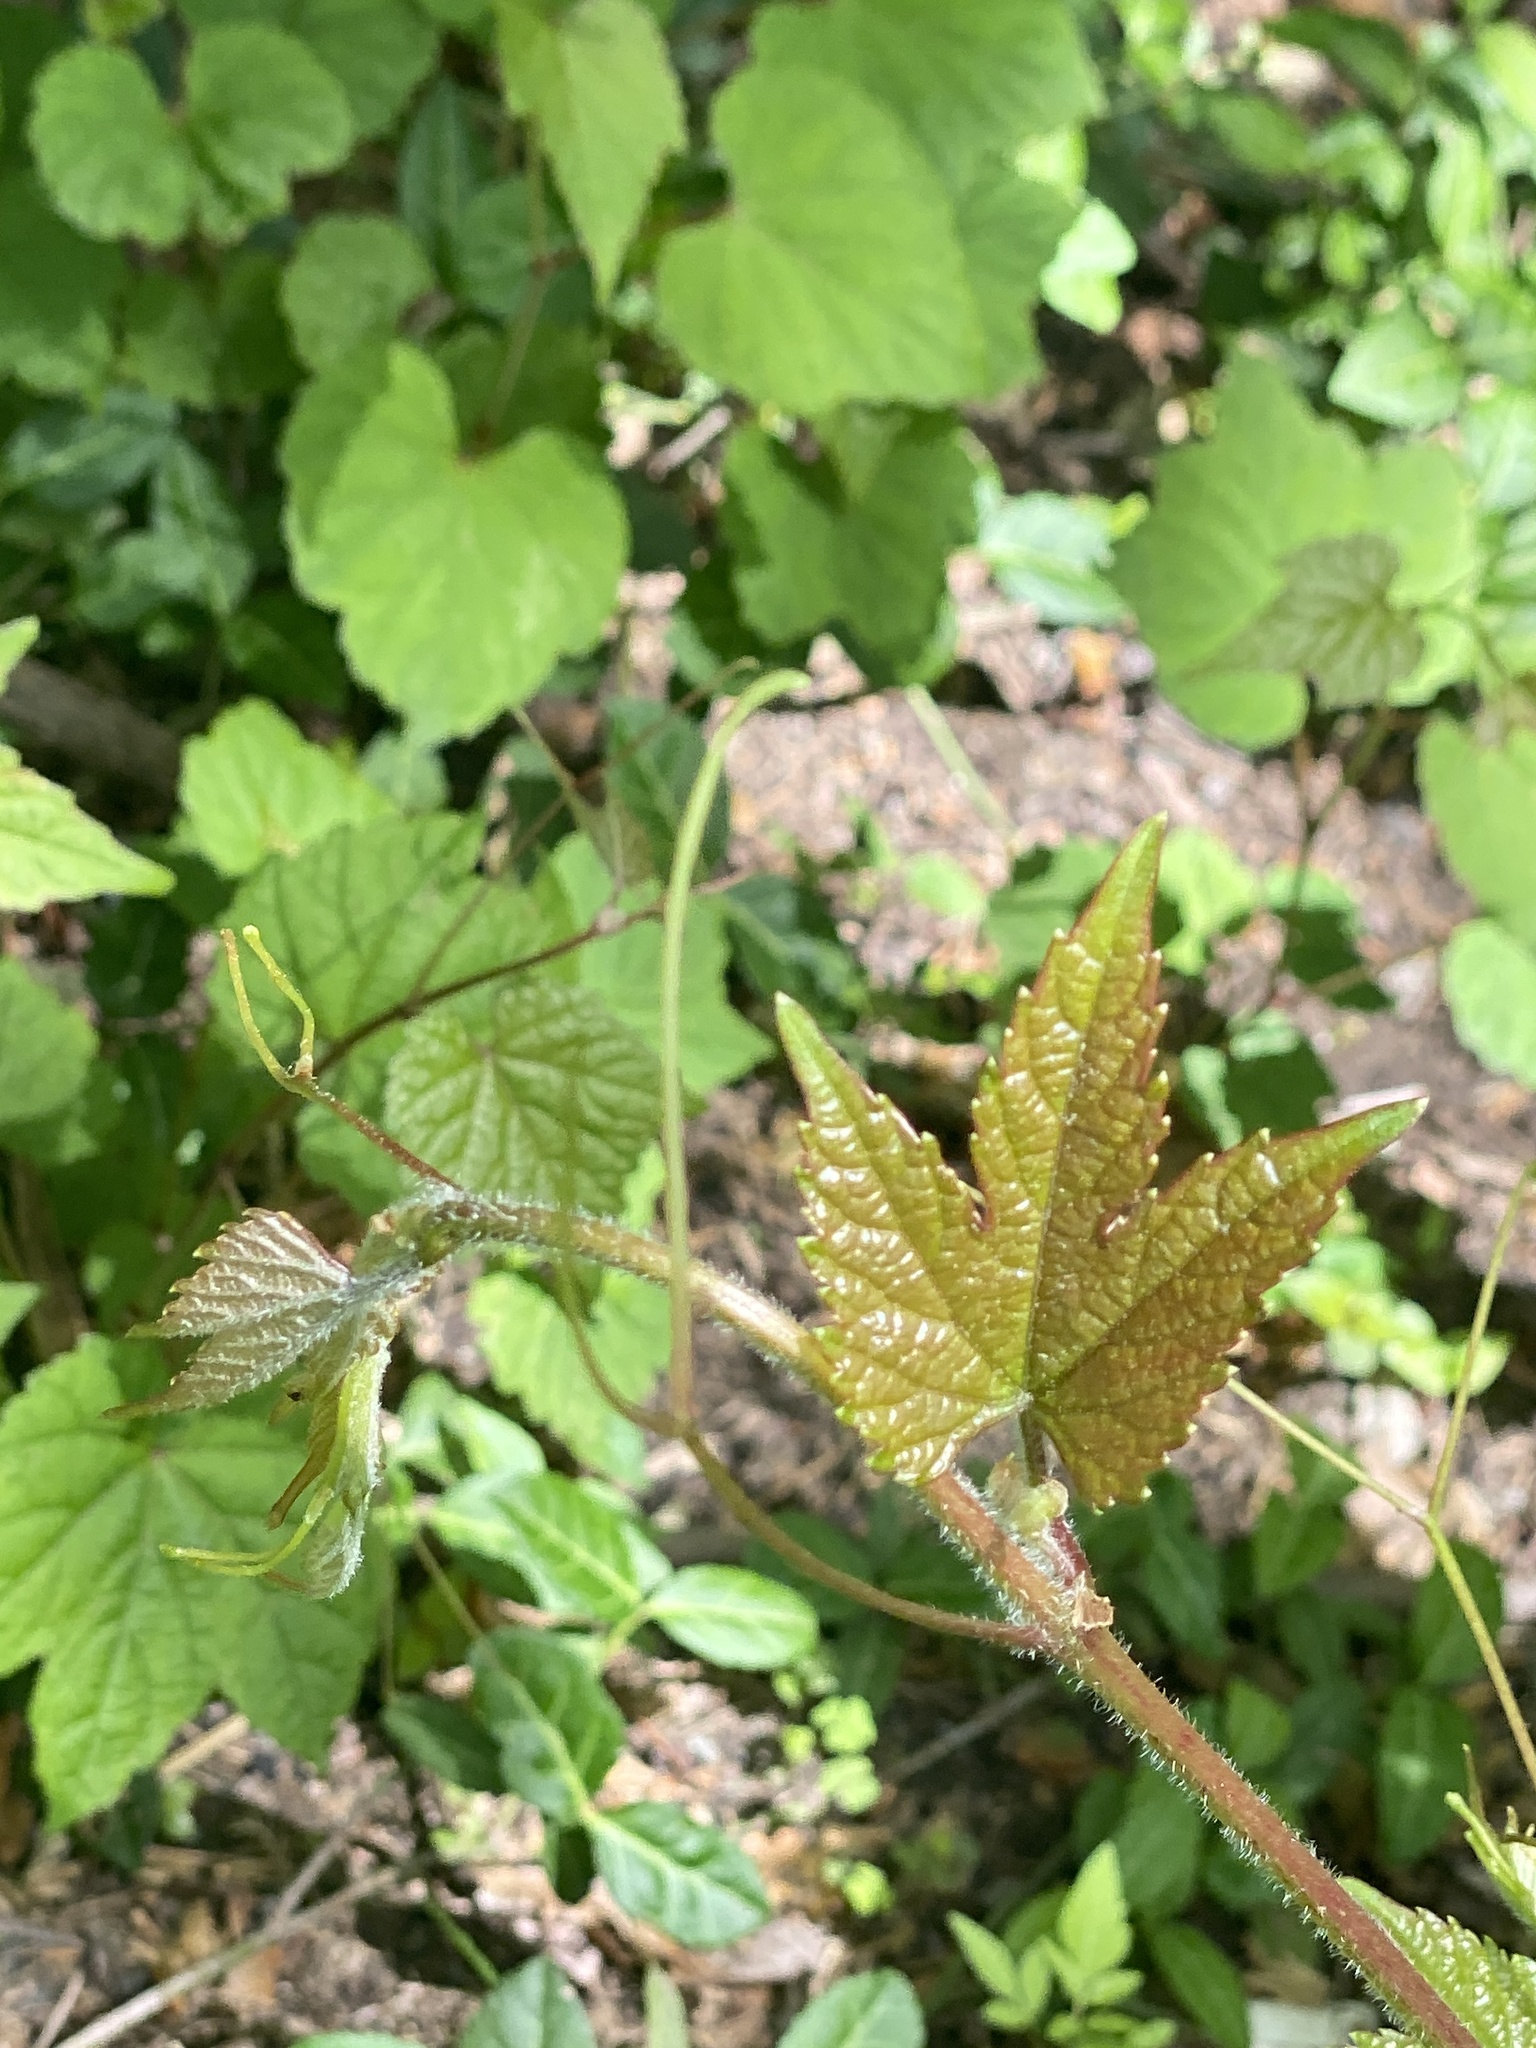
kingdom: Plantae
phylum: Tracheophyta
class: Magnoliopsida
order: Vitales
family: Vitaceae
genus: Ampelopsis
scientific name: Ampelopsis glandulosa
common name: Amur peppervine
